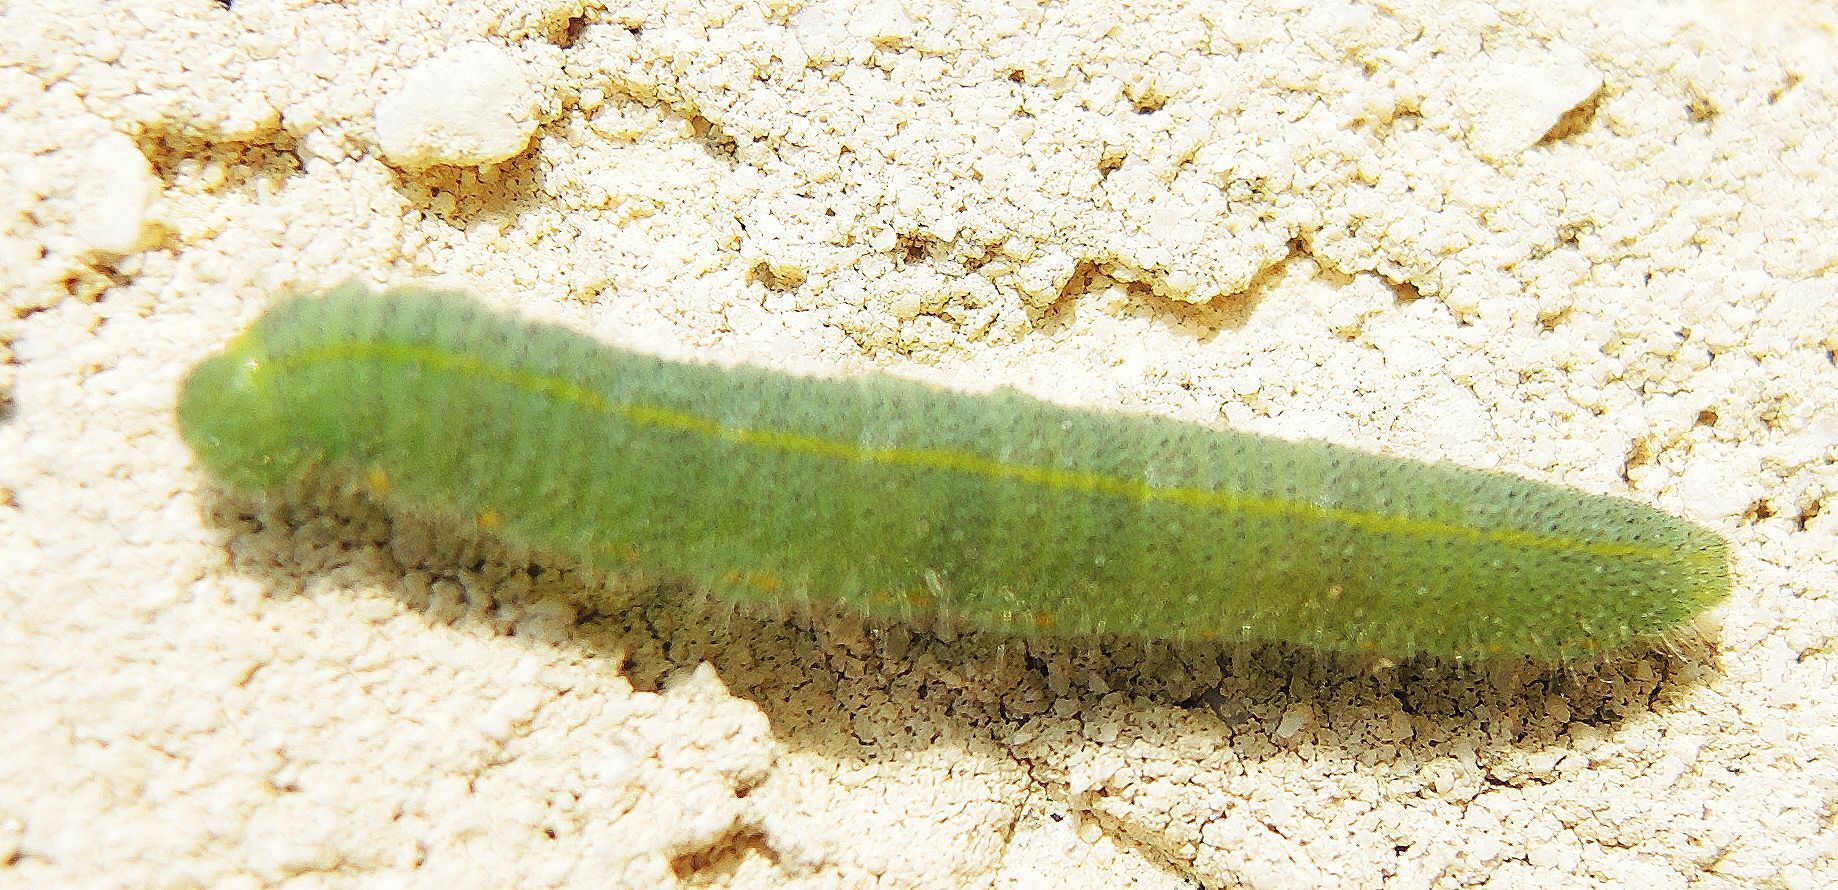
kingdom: Animalia
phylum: Arthropoda
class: Insecta
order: Lepidoptera
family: Pieridae
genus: Pieris
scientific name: Pieris rapae
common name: Small white
